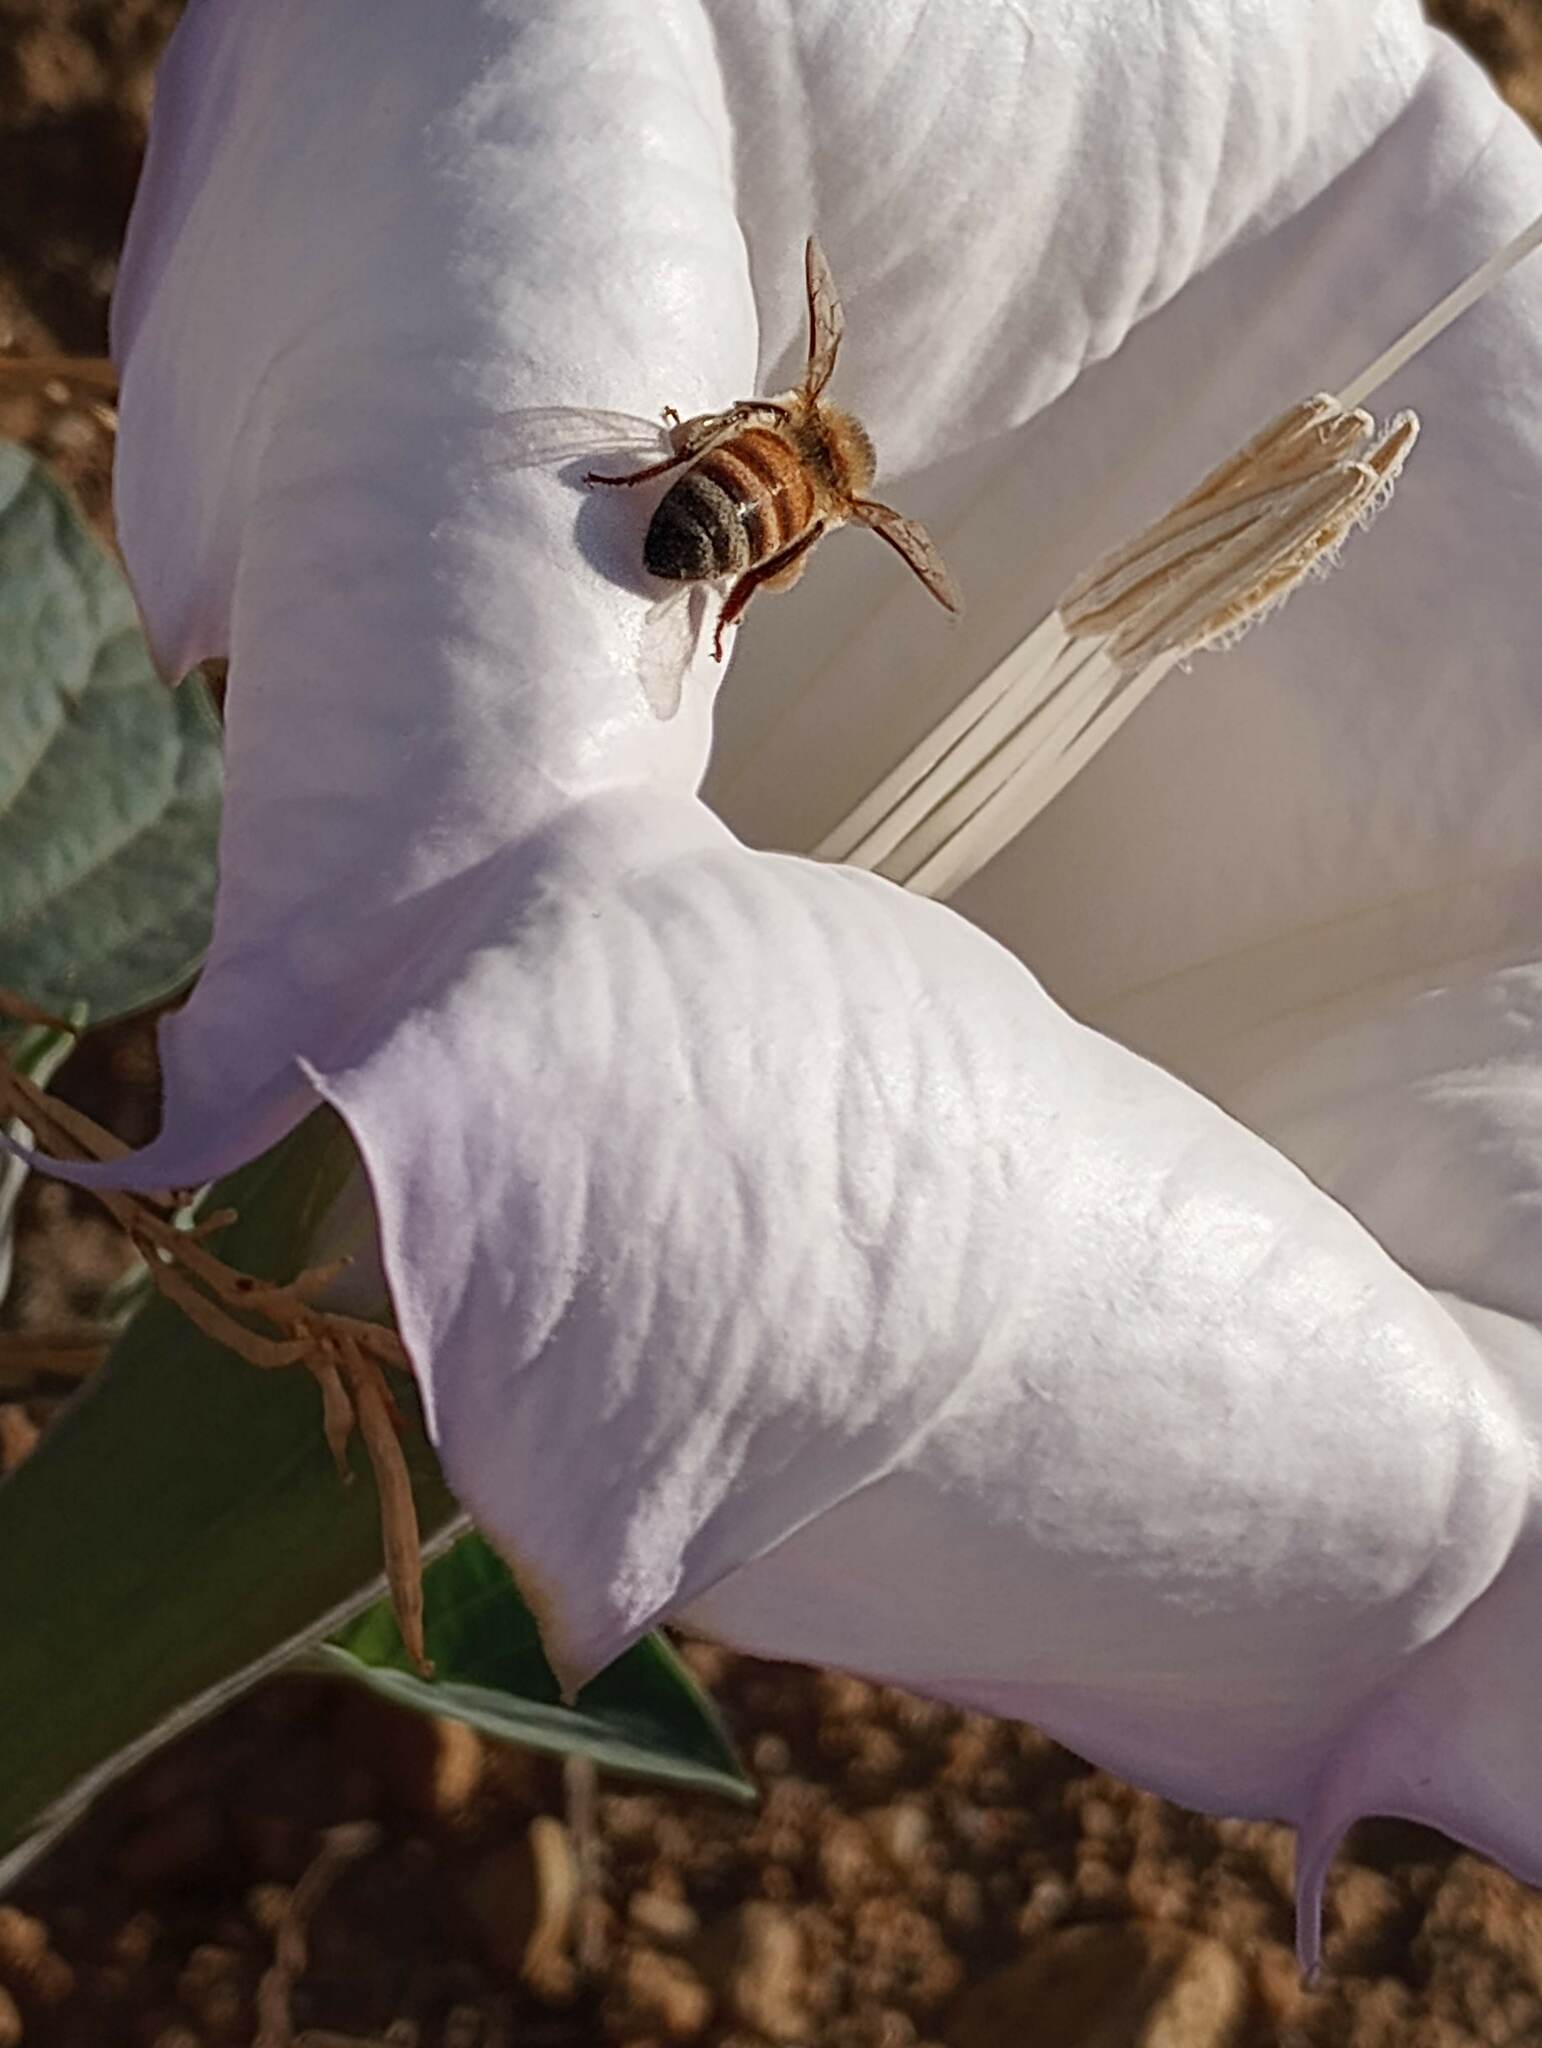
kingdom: Animalia
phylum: Arthropoda
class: Insecta
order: Hymenoptera
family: Apidae
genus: Apis
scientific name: Apis mellifera
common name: Honey bee
